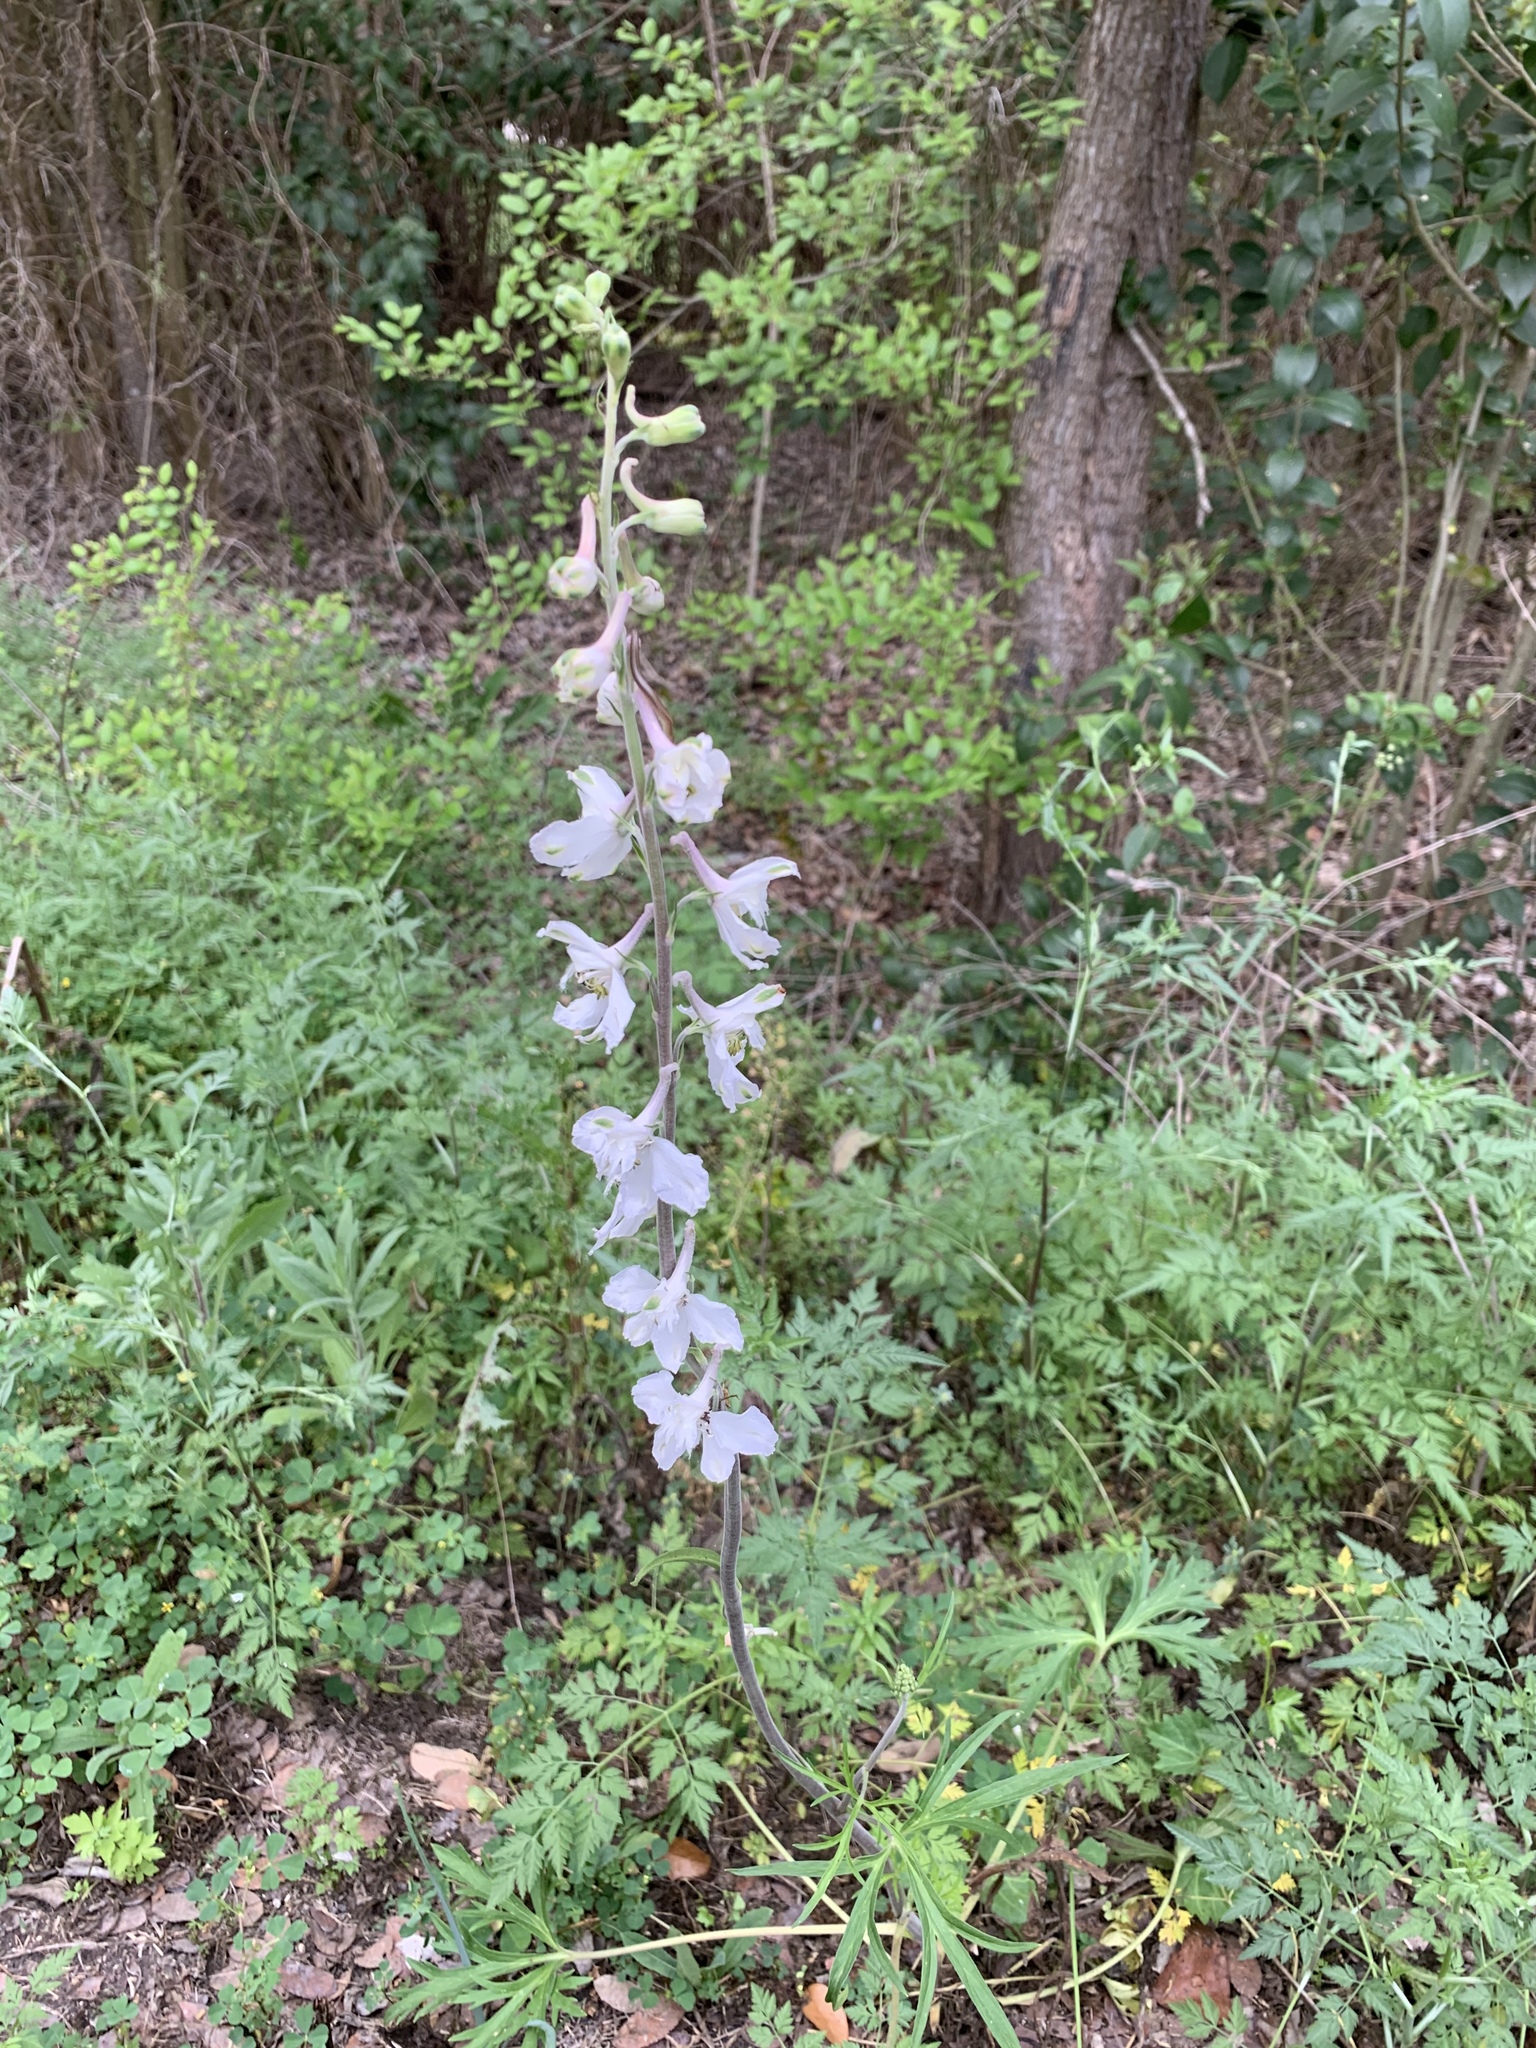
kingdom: Plantae
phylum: Tracheophyta
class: Magnoliopsida
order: Ranunculales
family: Ranunculaceae
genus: Delphinium
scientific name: Delphinium carolinianum
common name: Carolina larkspur
